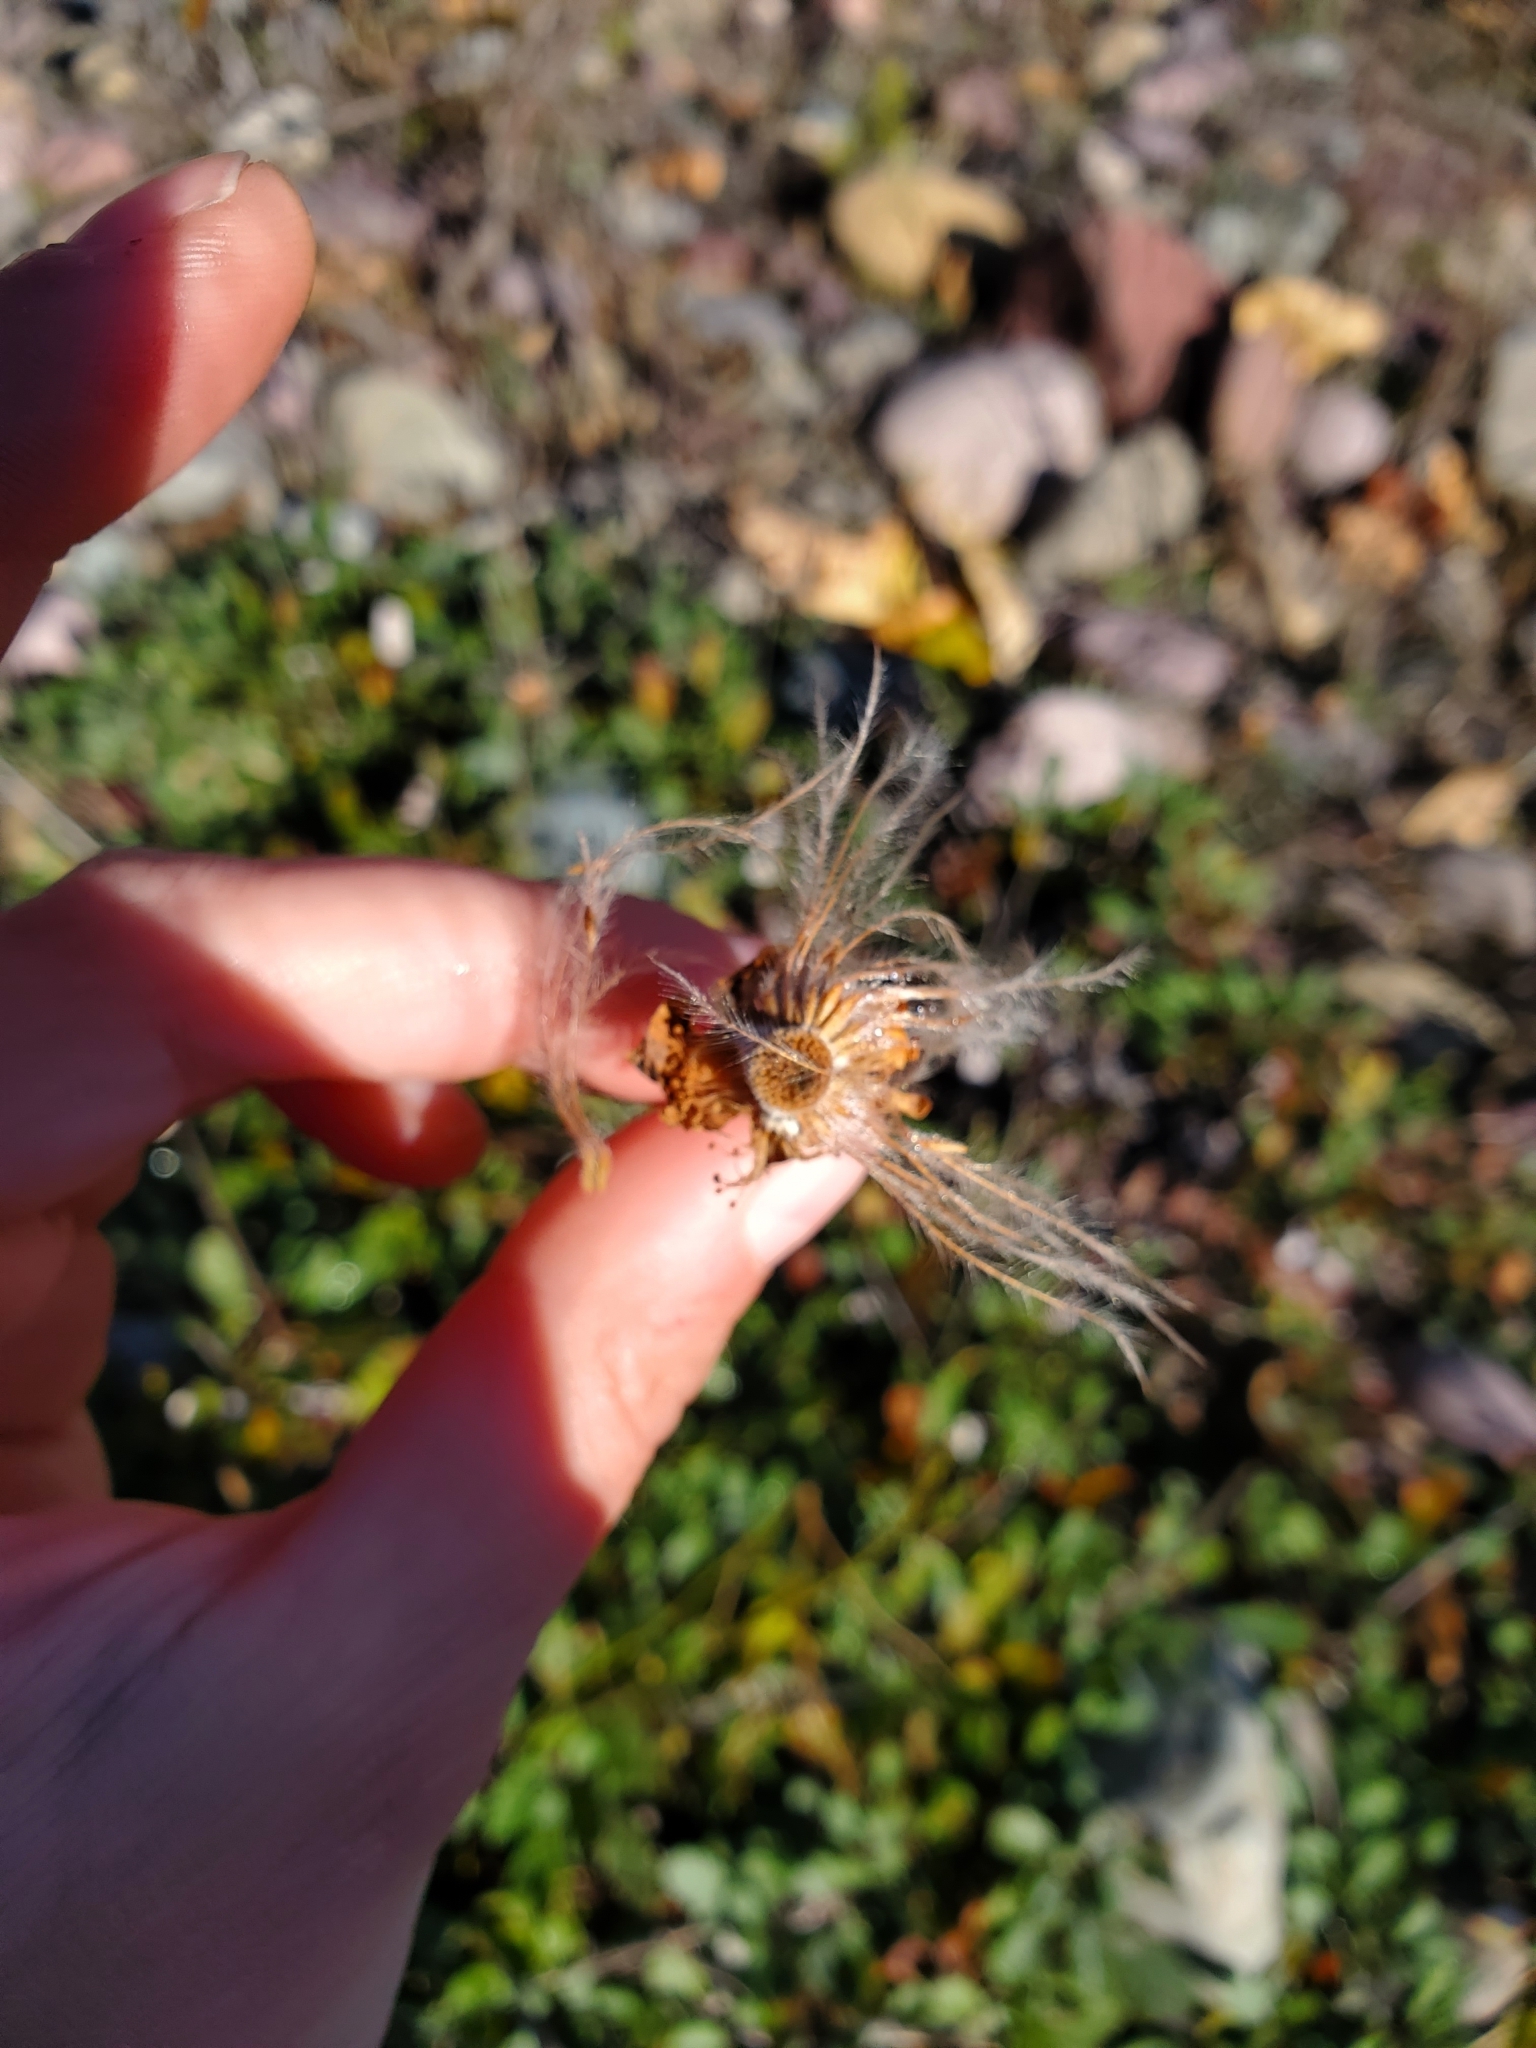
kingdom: Plantae
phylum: Tracheophyta
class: Magnoliopsida
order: Rosales
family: Rosaceae
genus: Dryas
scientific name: Dryas drummondii
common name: Drummond's dryad
